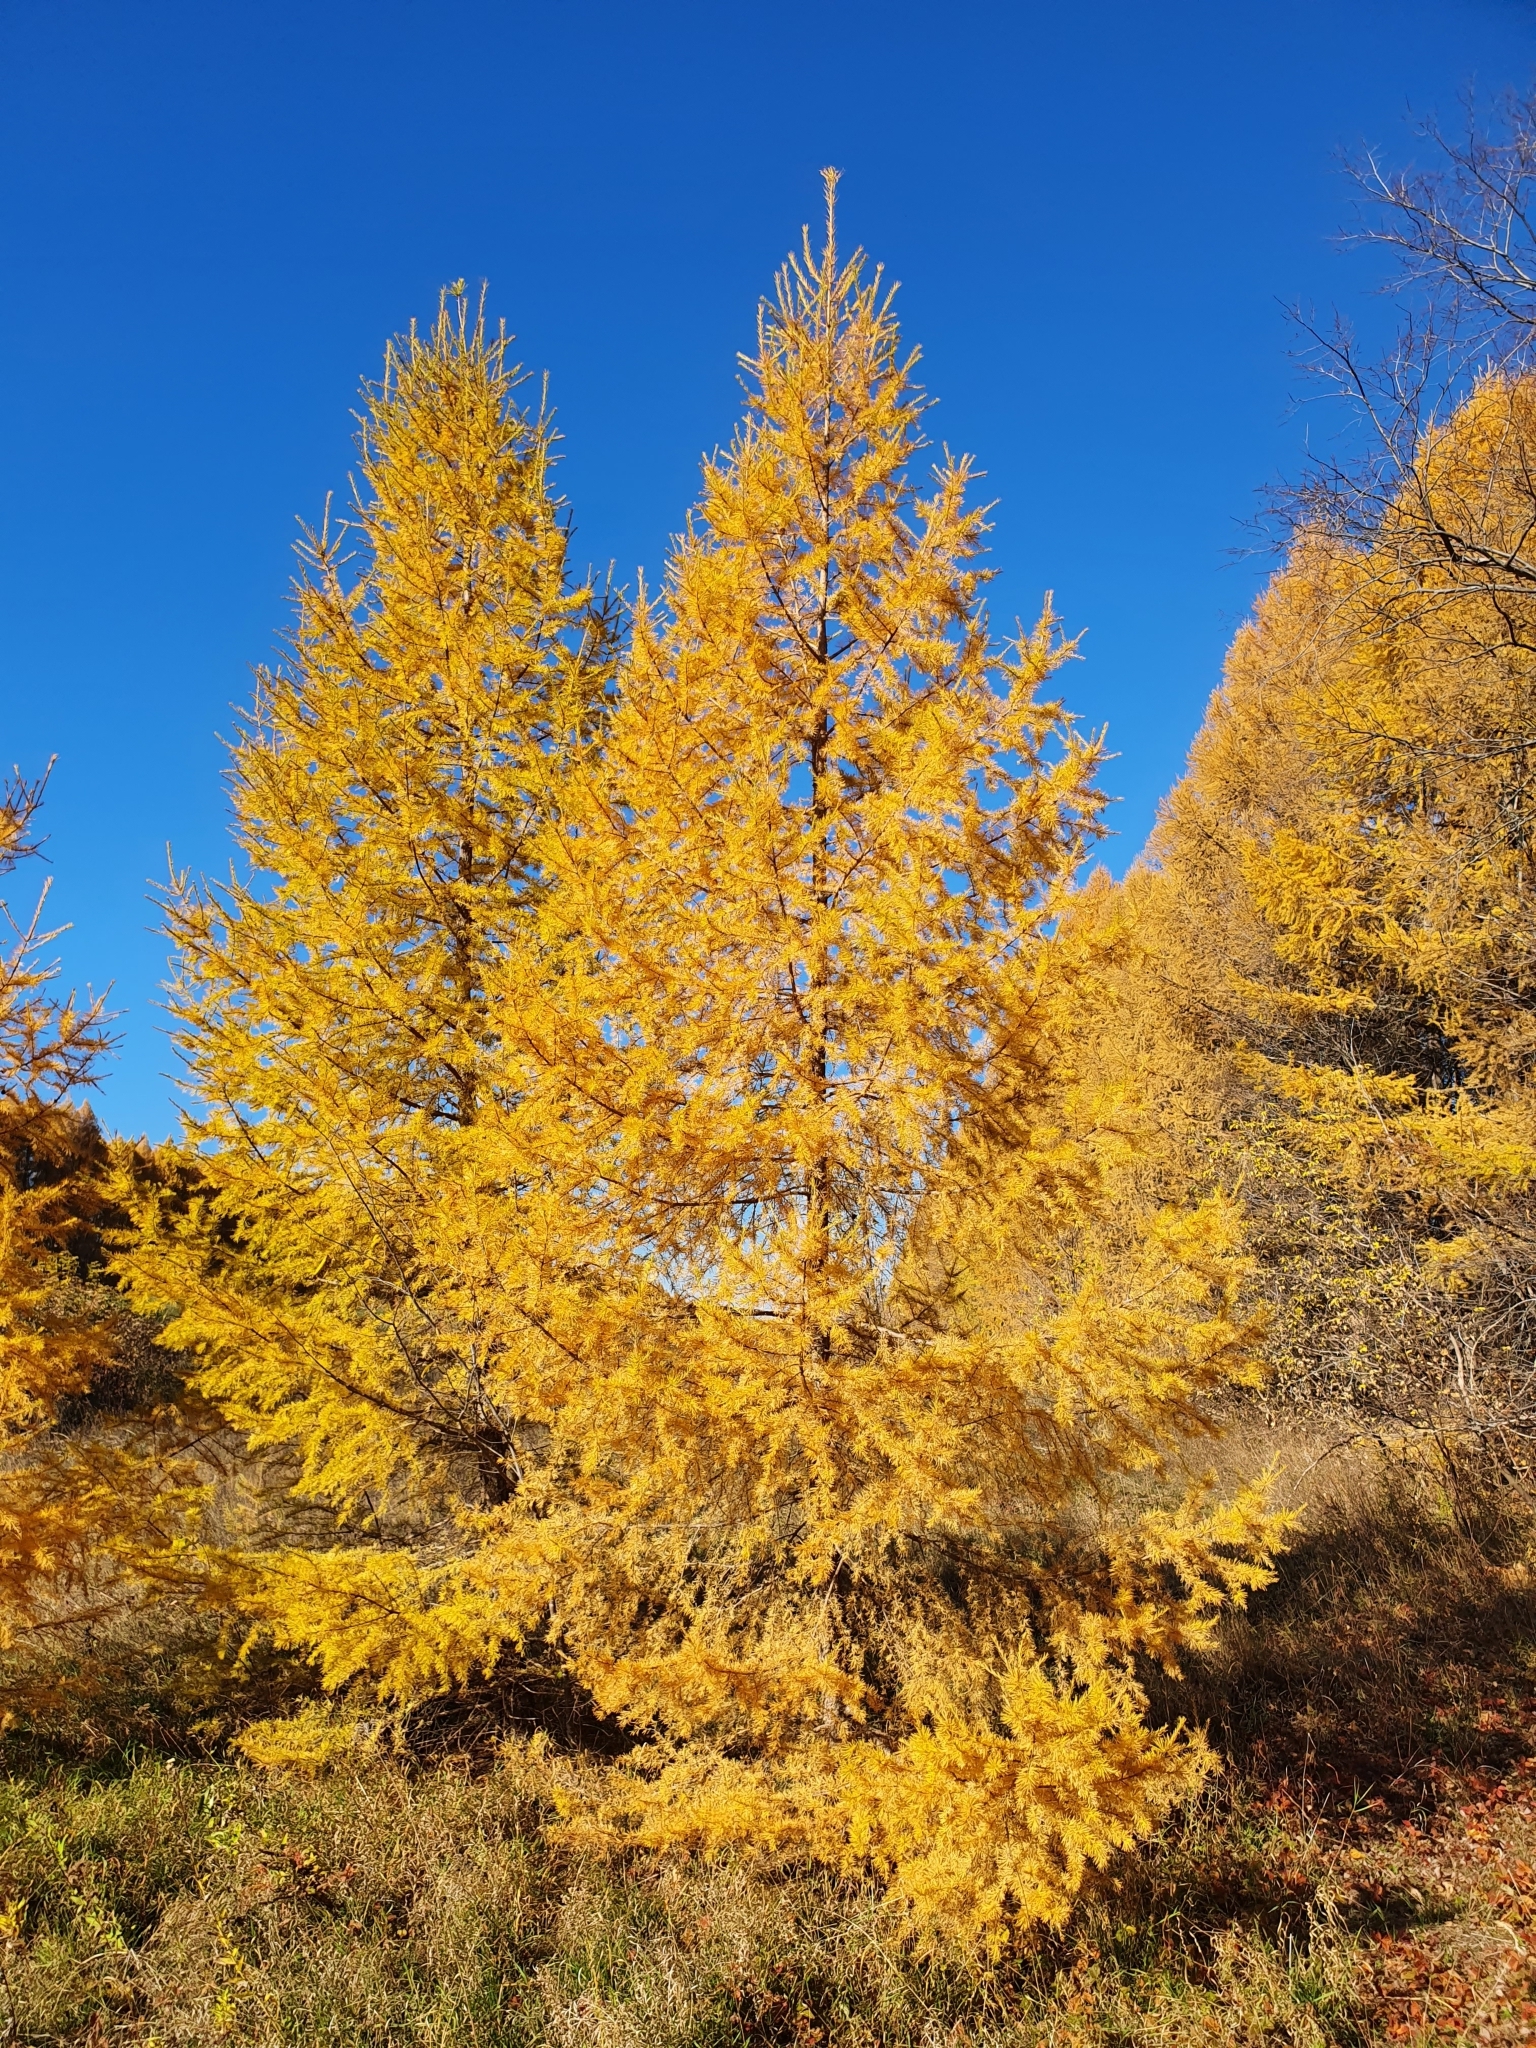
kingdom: Plantae
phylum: Tracheophyta
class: Pinopsida
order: Pinales
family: Pinaceae
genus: Larix
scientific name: Larix sibirica
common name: Siberian larch
